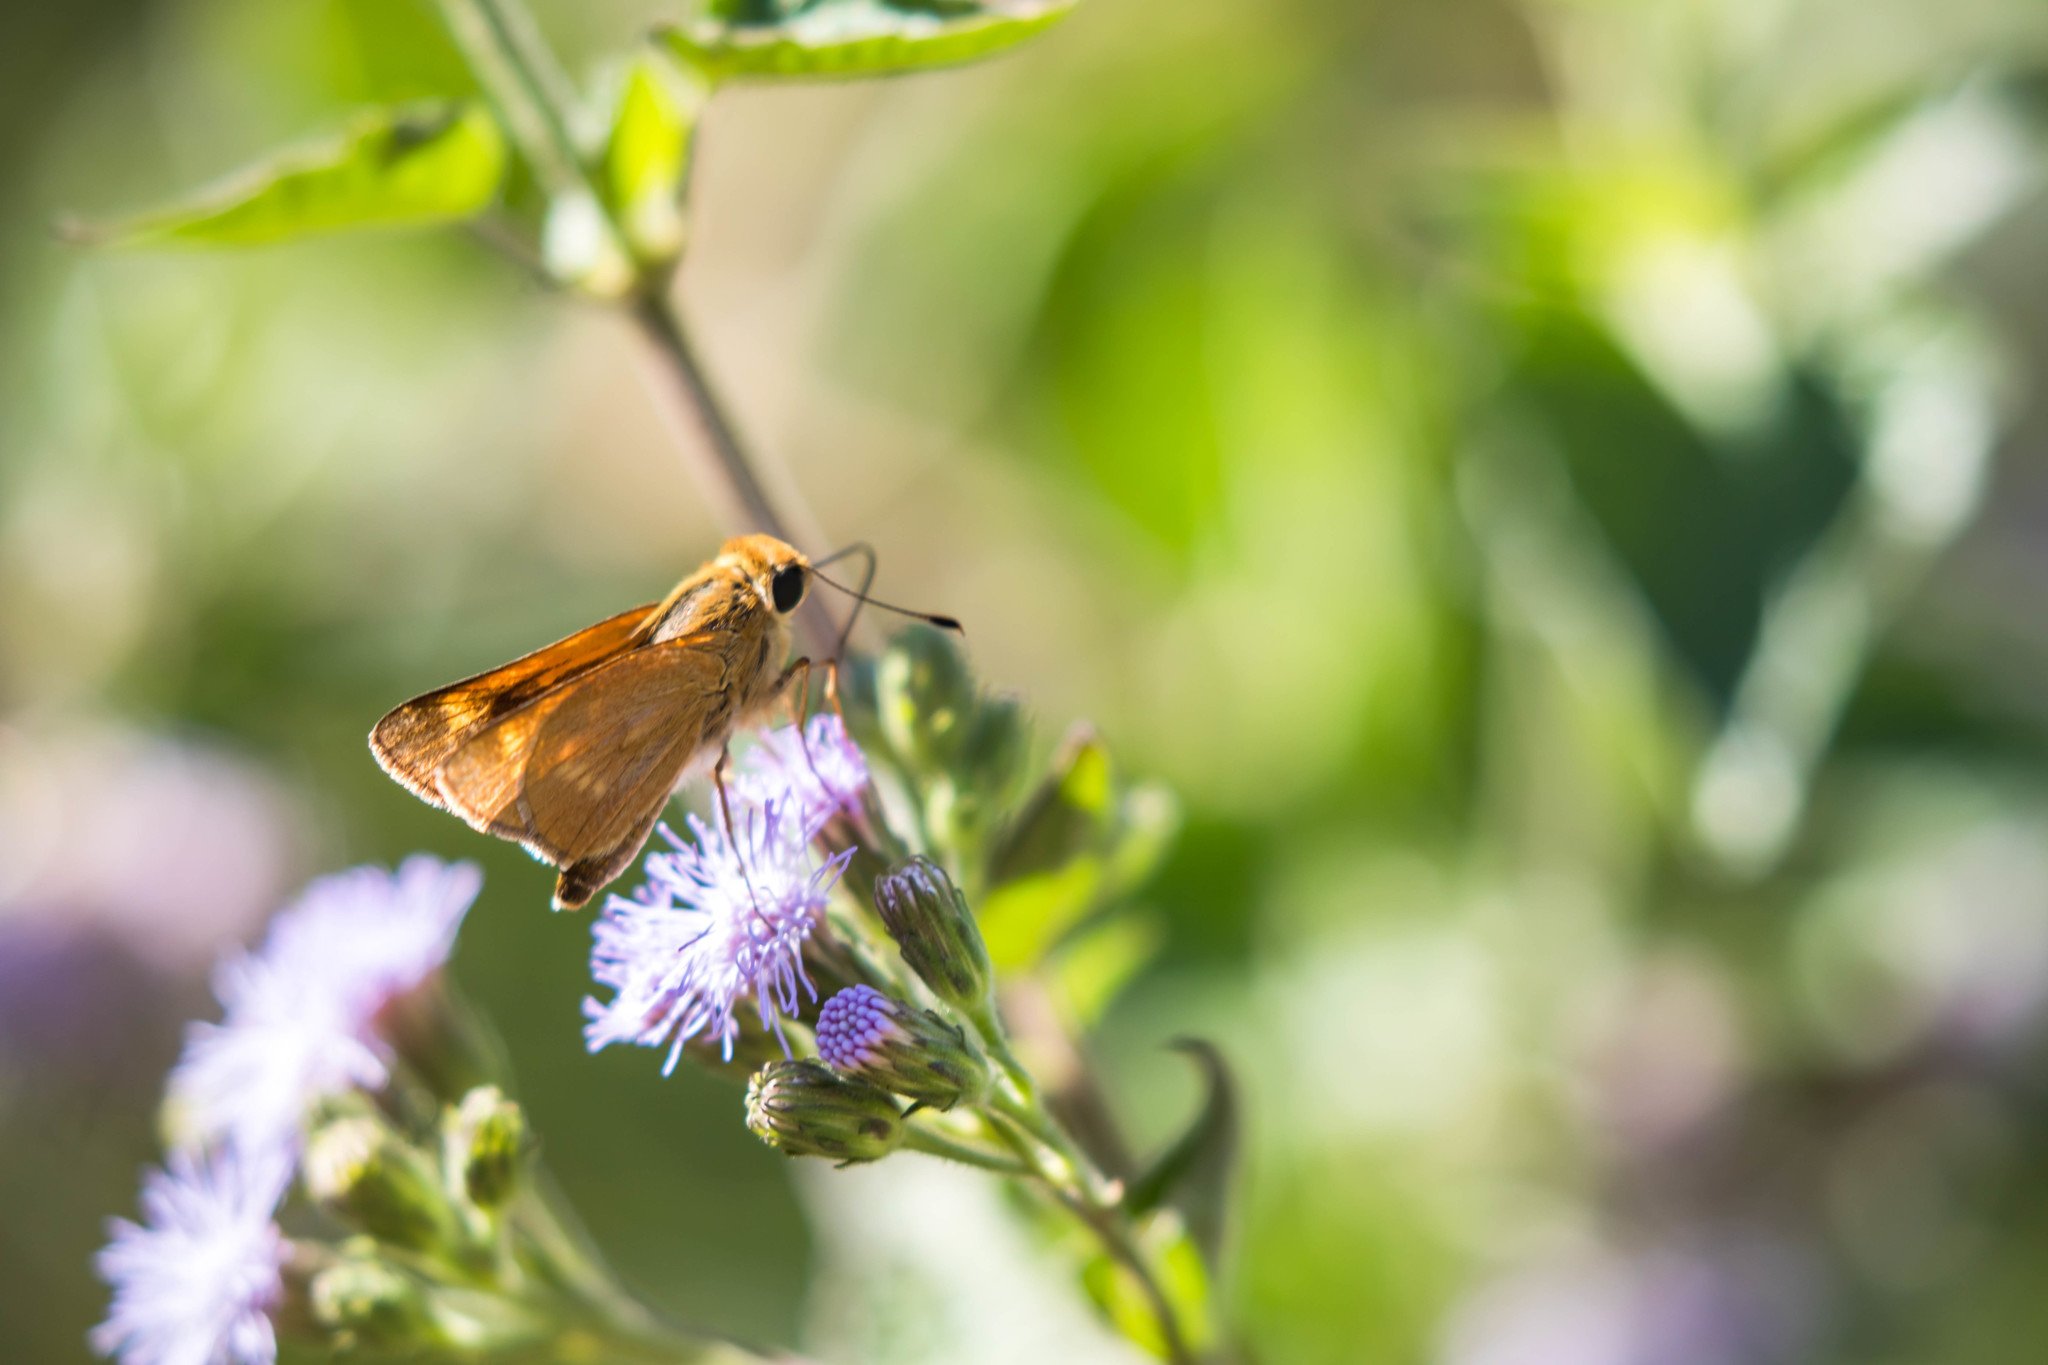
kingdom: Animalia
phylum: Arthropoda
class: Insecta
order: Lepidoptera
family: Hesperiidae
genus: Polites
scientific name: Polites otho
